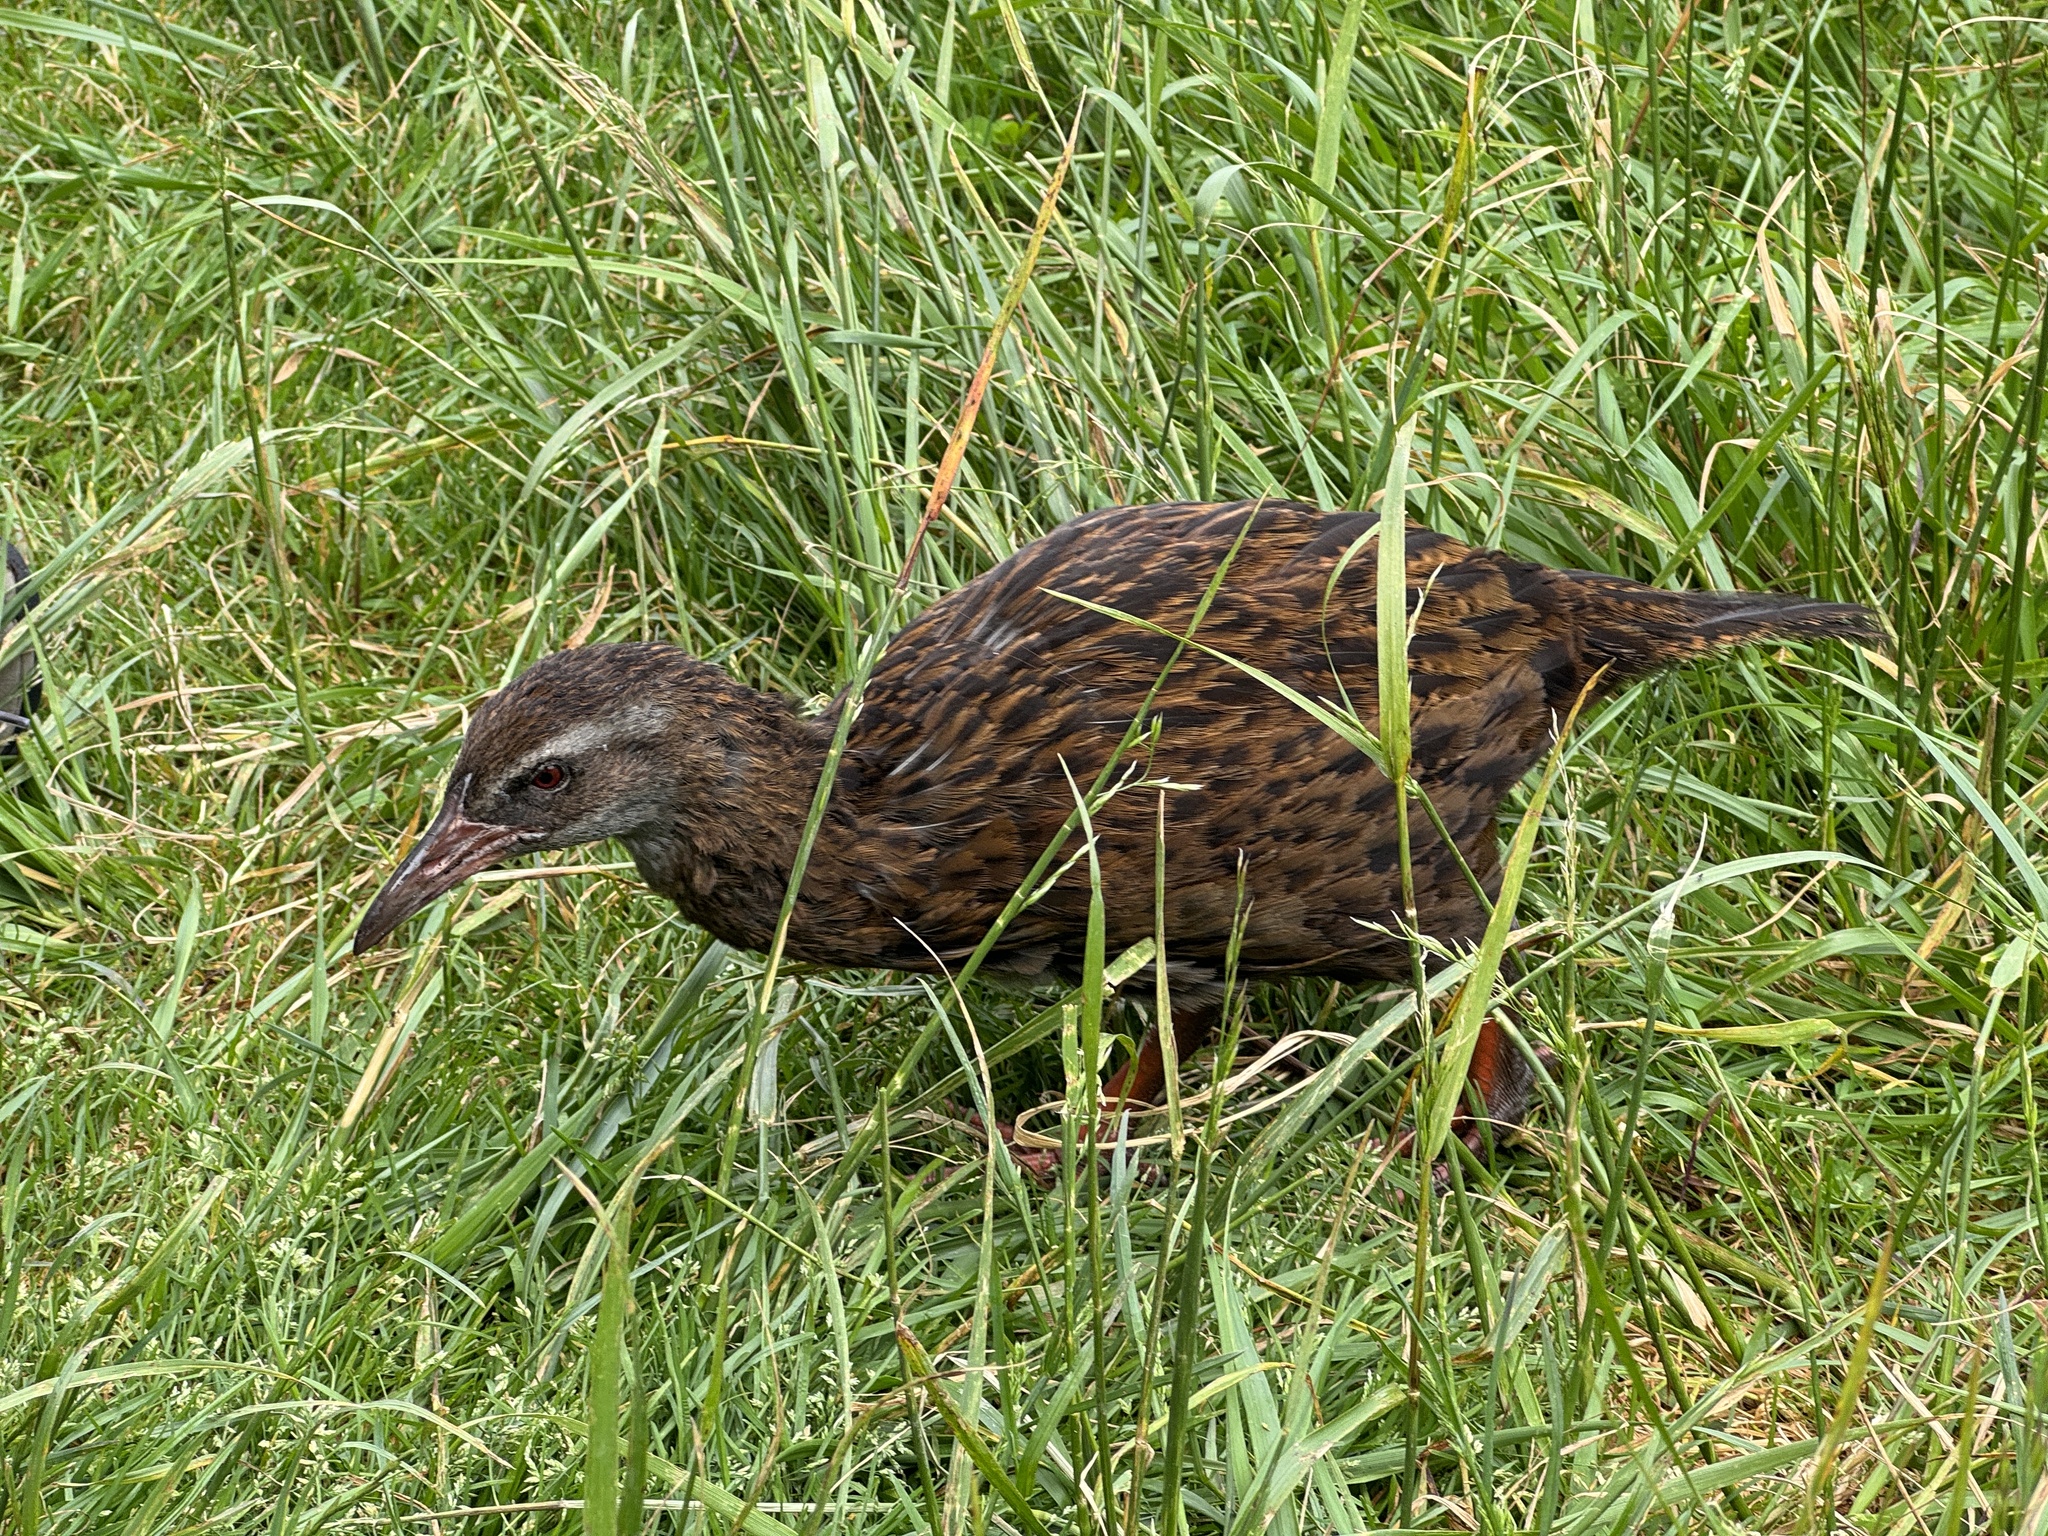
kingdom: Animalia
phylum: Chordata
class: Aves
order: Gruiformes
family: Rallidae
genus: Gallirallus
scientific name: Gallirallus australis
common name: Weka
